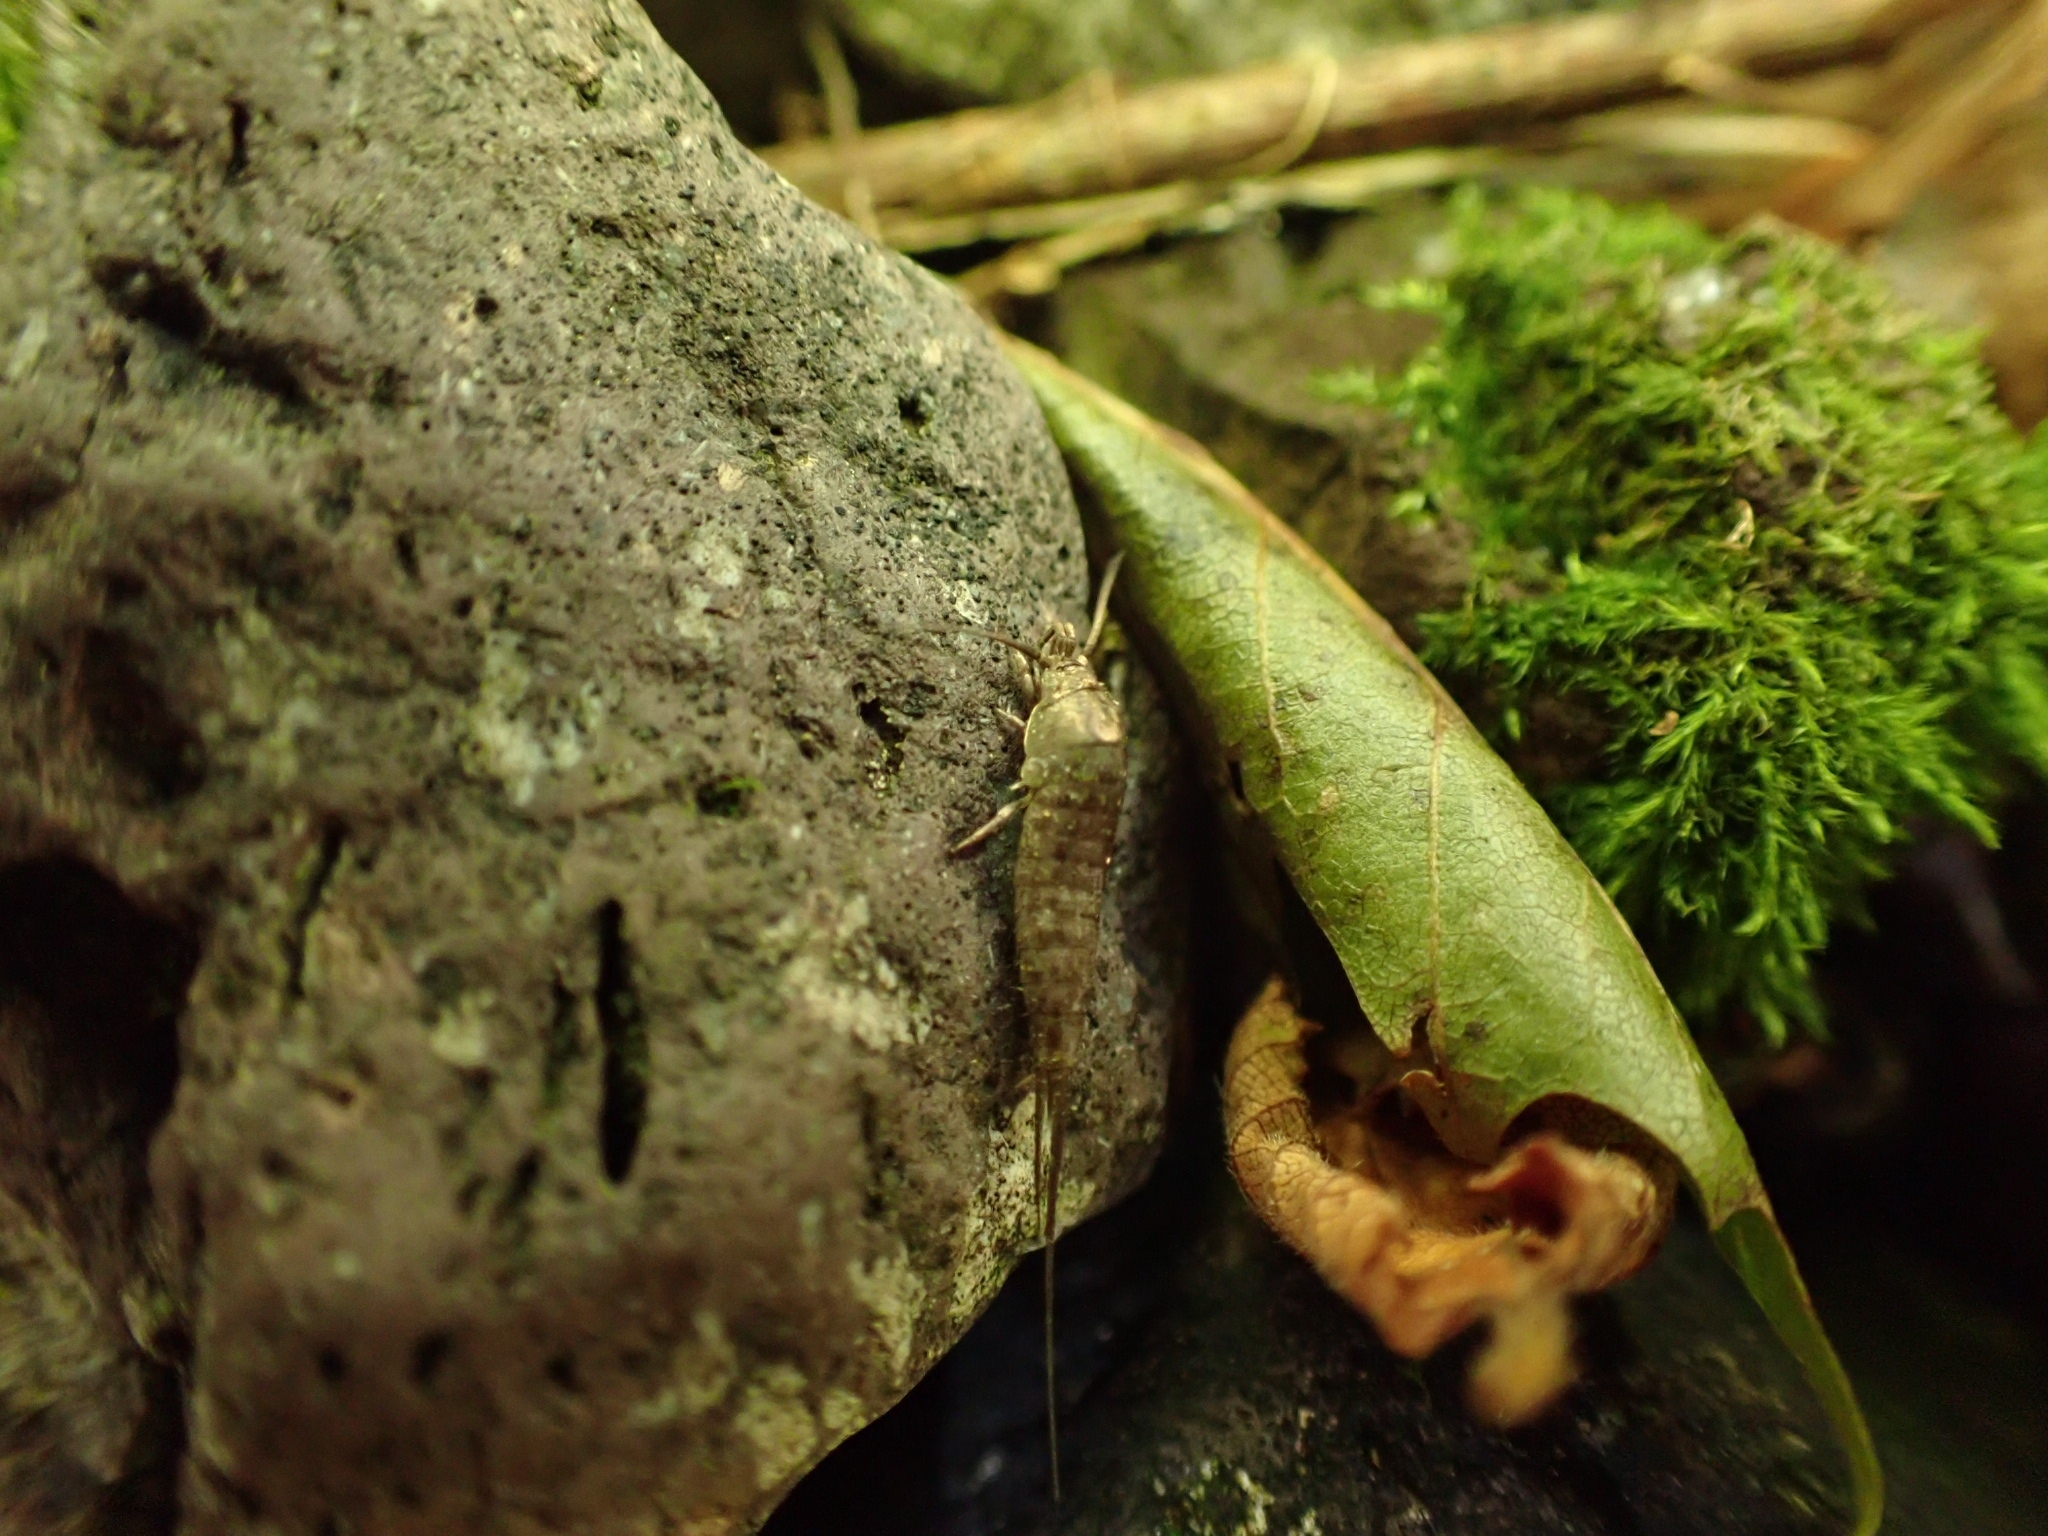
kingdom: Animalia
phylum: Arthropoda
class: Insecta
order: Archaeognatha
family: Machilidae
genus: Dilta
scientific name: Dilta hibernica
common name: Southern bristletail
